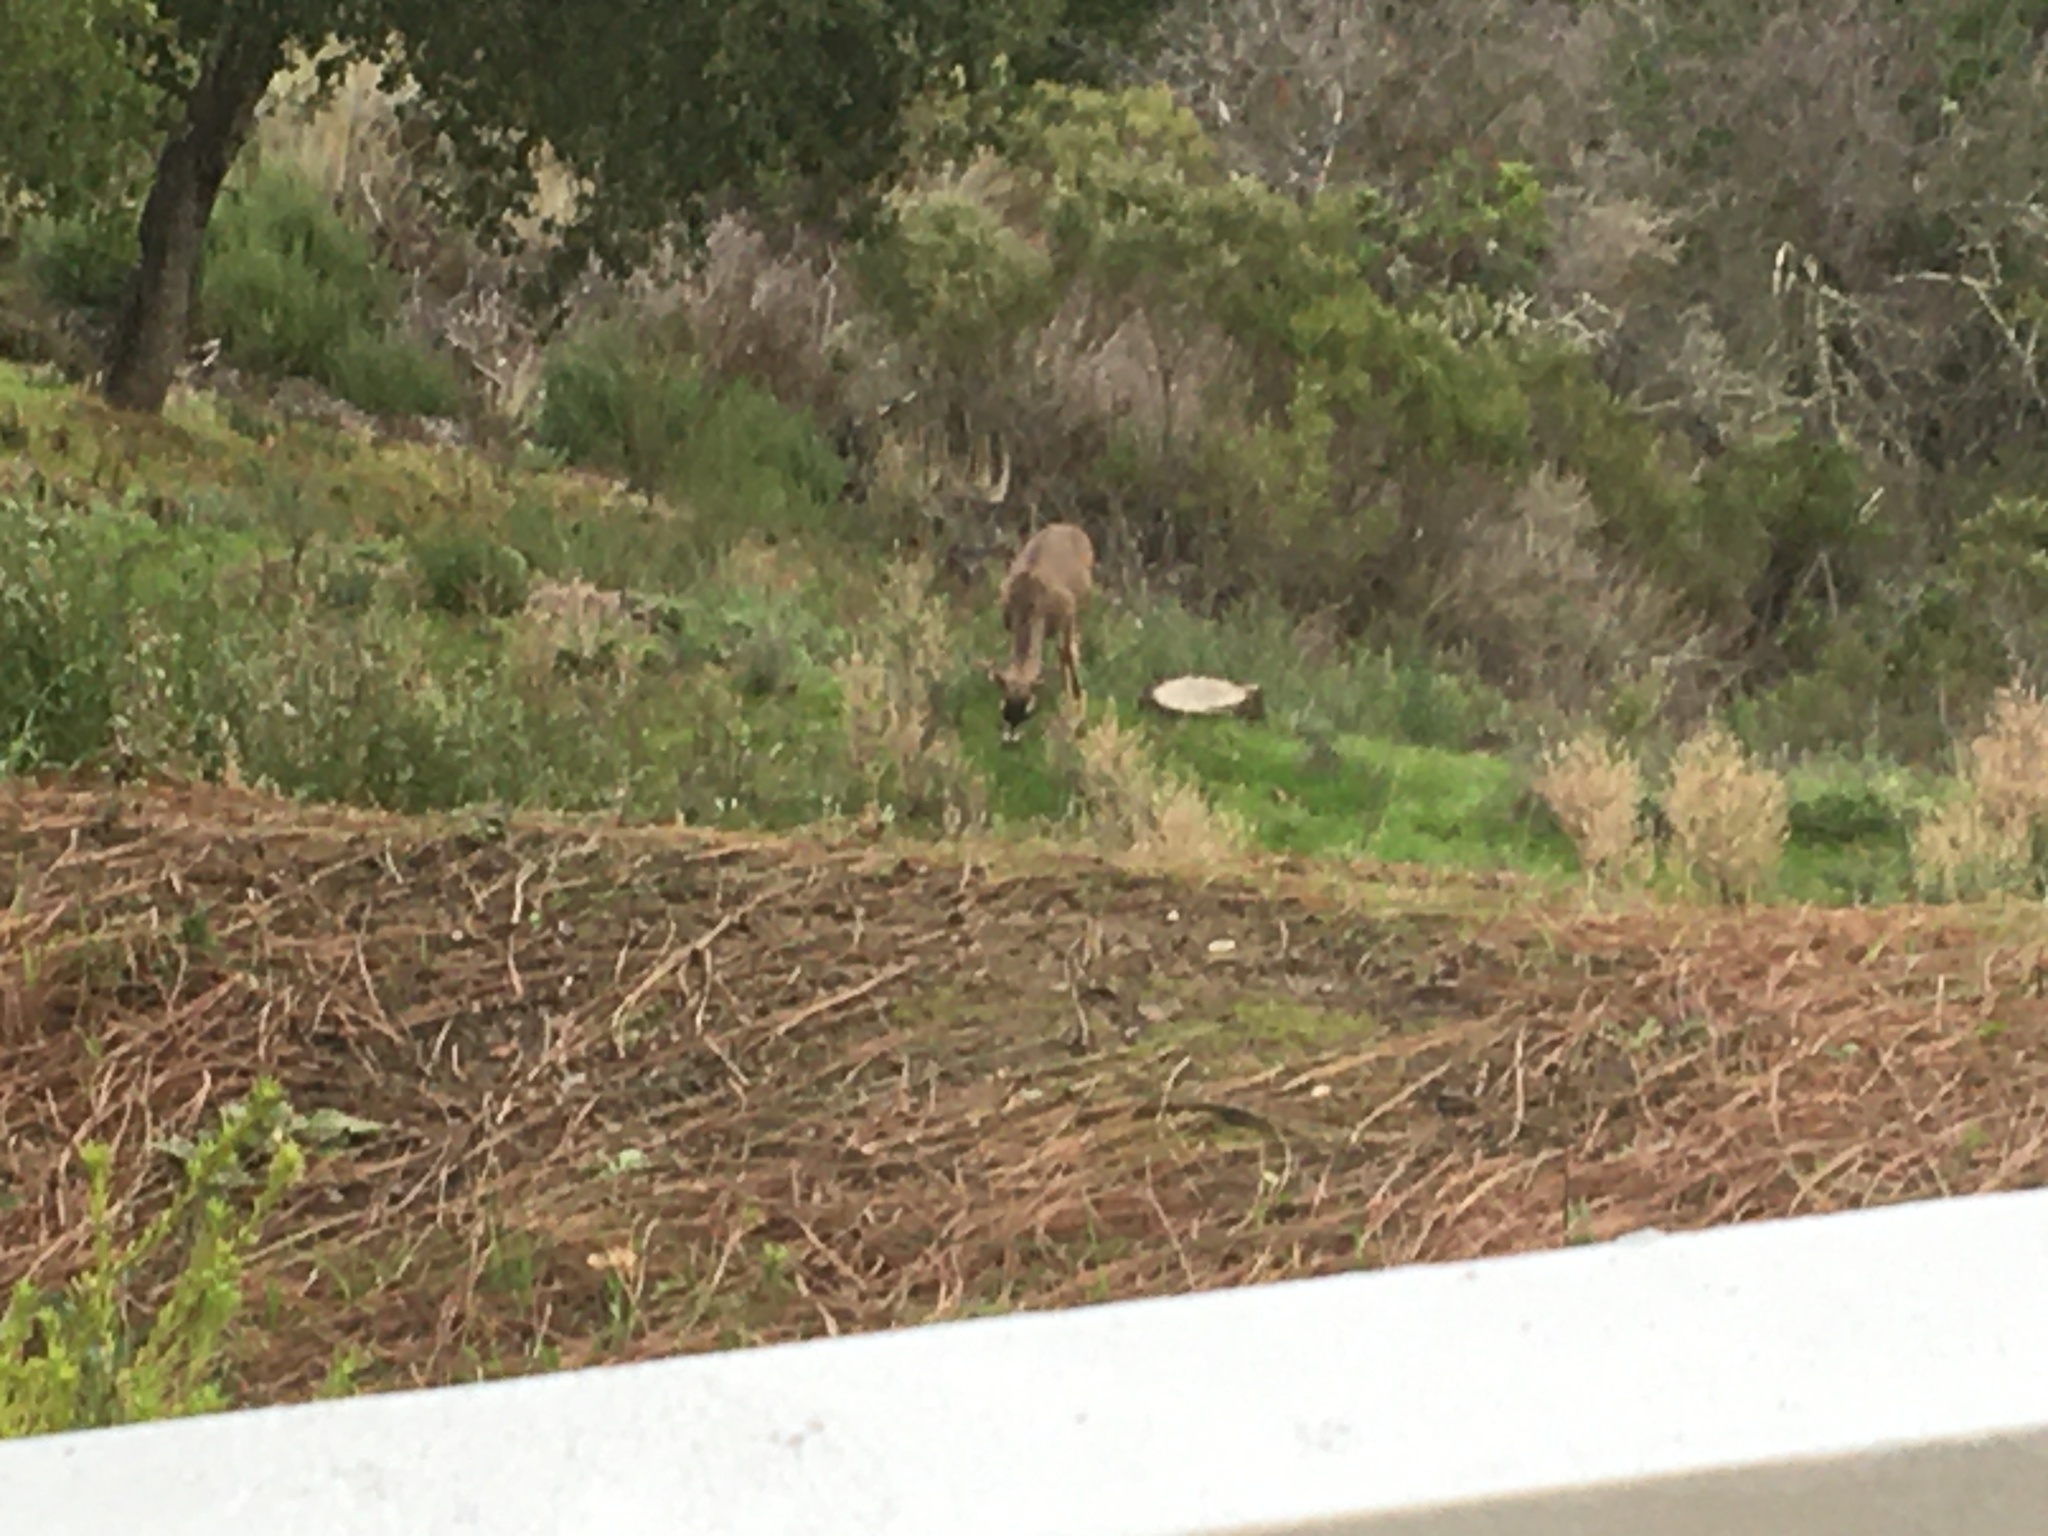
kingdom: Animalia
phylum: Chordata
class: Mammalia
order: Artiodactyla
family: Cervidae
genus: Odocoileus
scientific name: Odocoileus hemionus
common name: Mule deer
